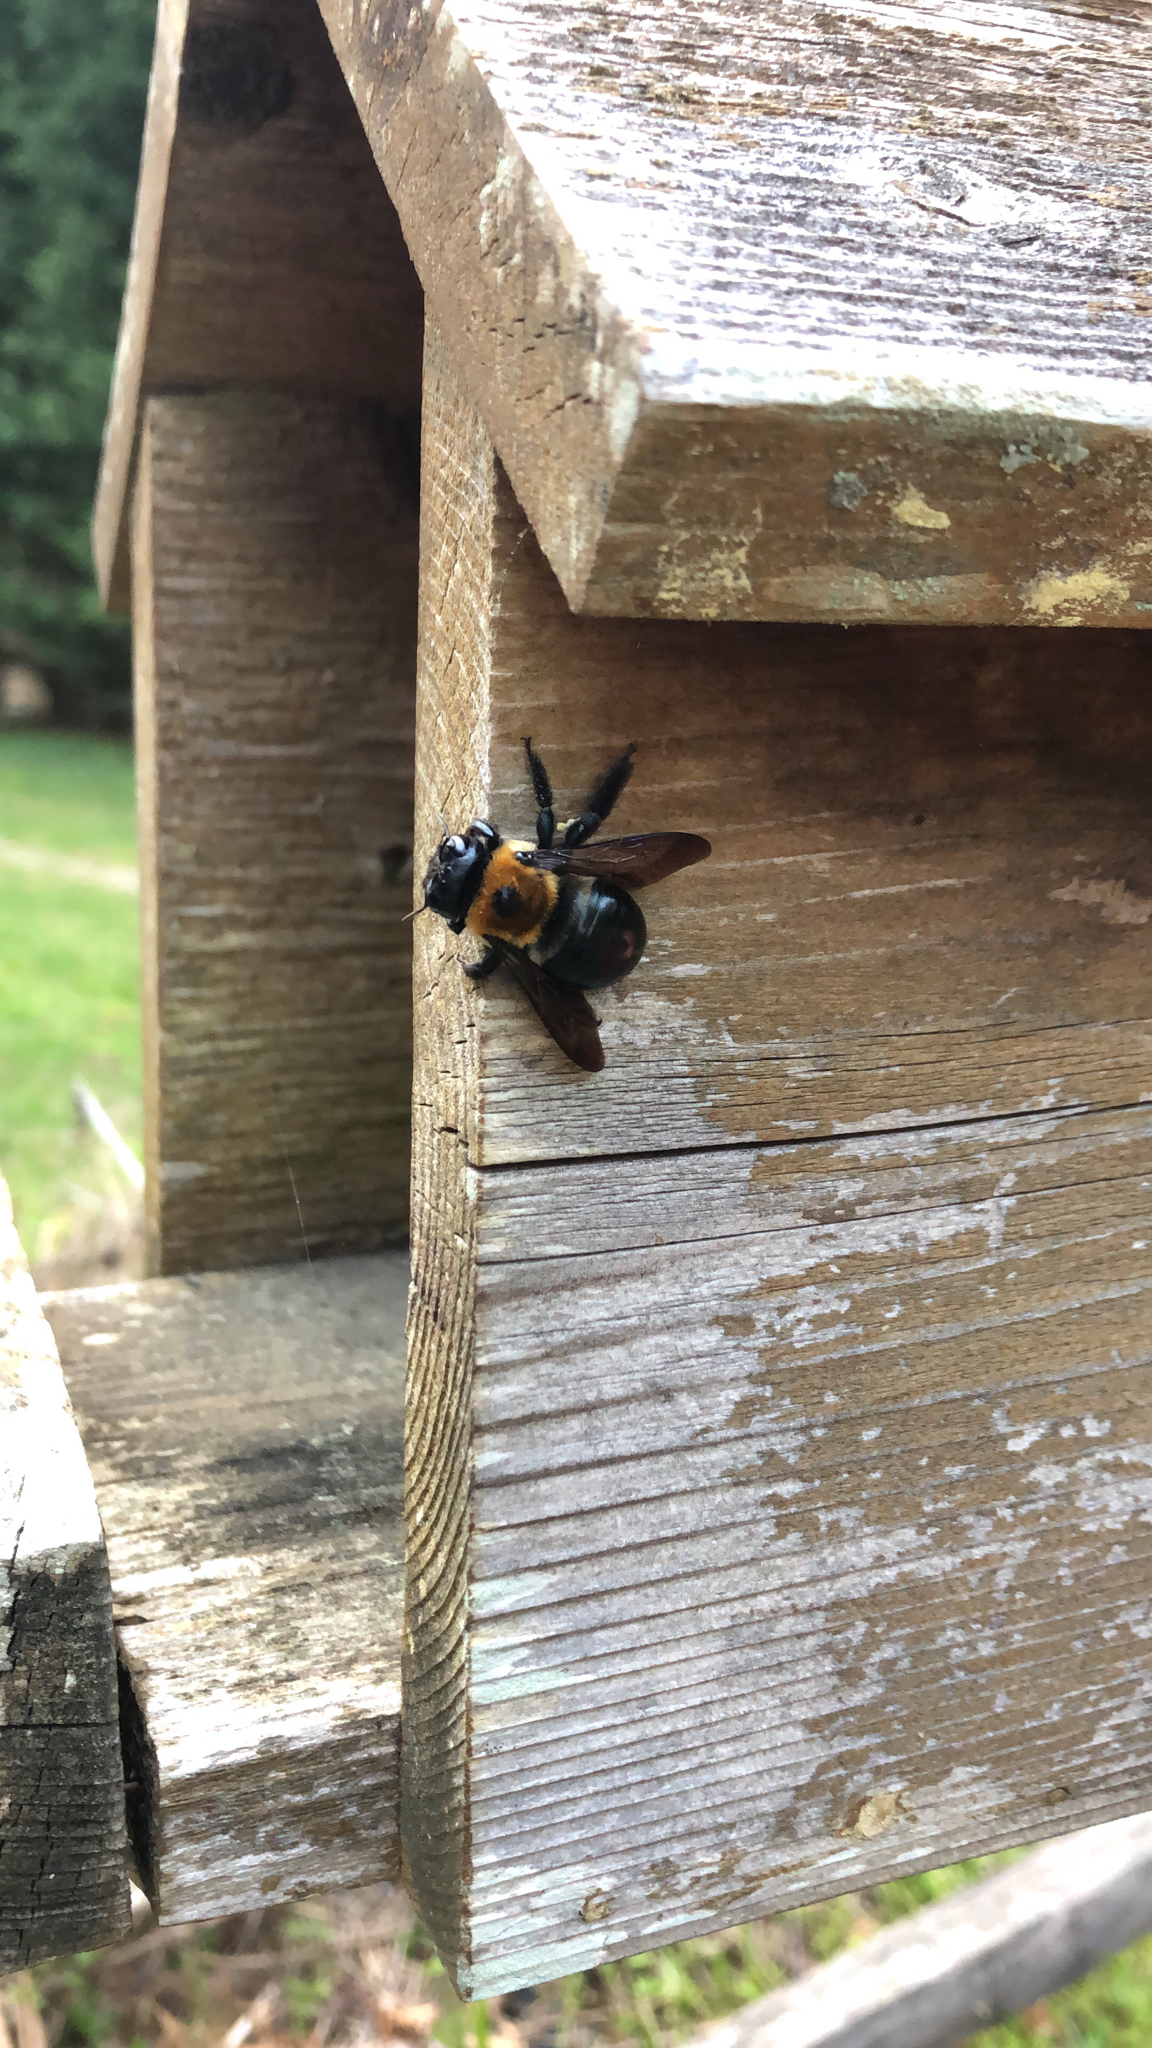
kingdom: Animalia
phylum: Arthropoda
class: Insecta
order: Hymenoptera
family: Apidae
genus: Xylocopa
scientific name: Xylocopa virginica
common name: Carpenter bee
